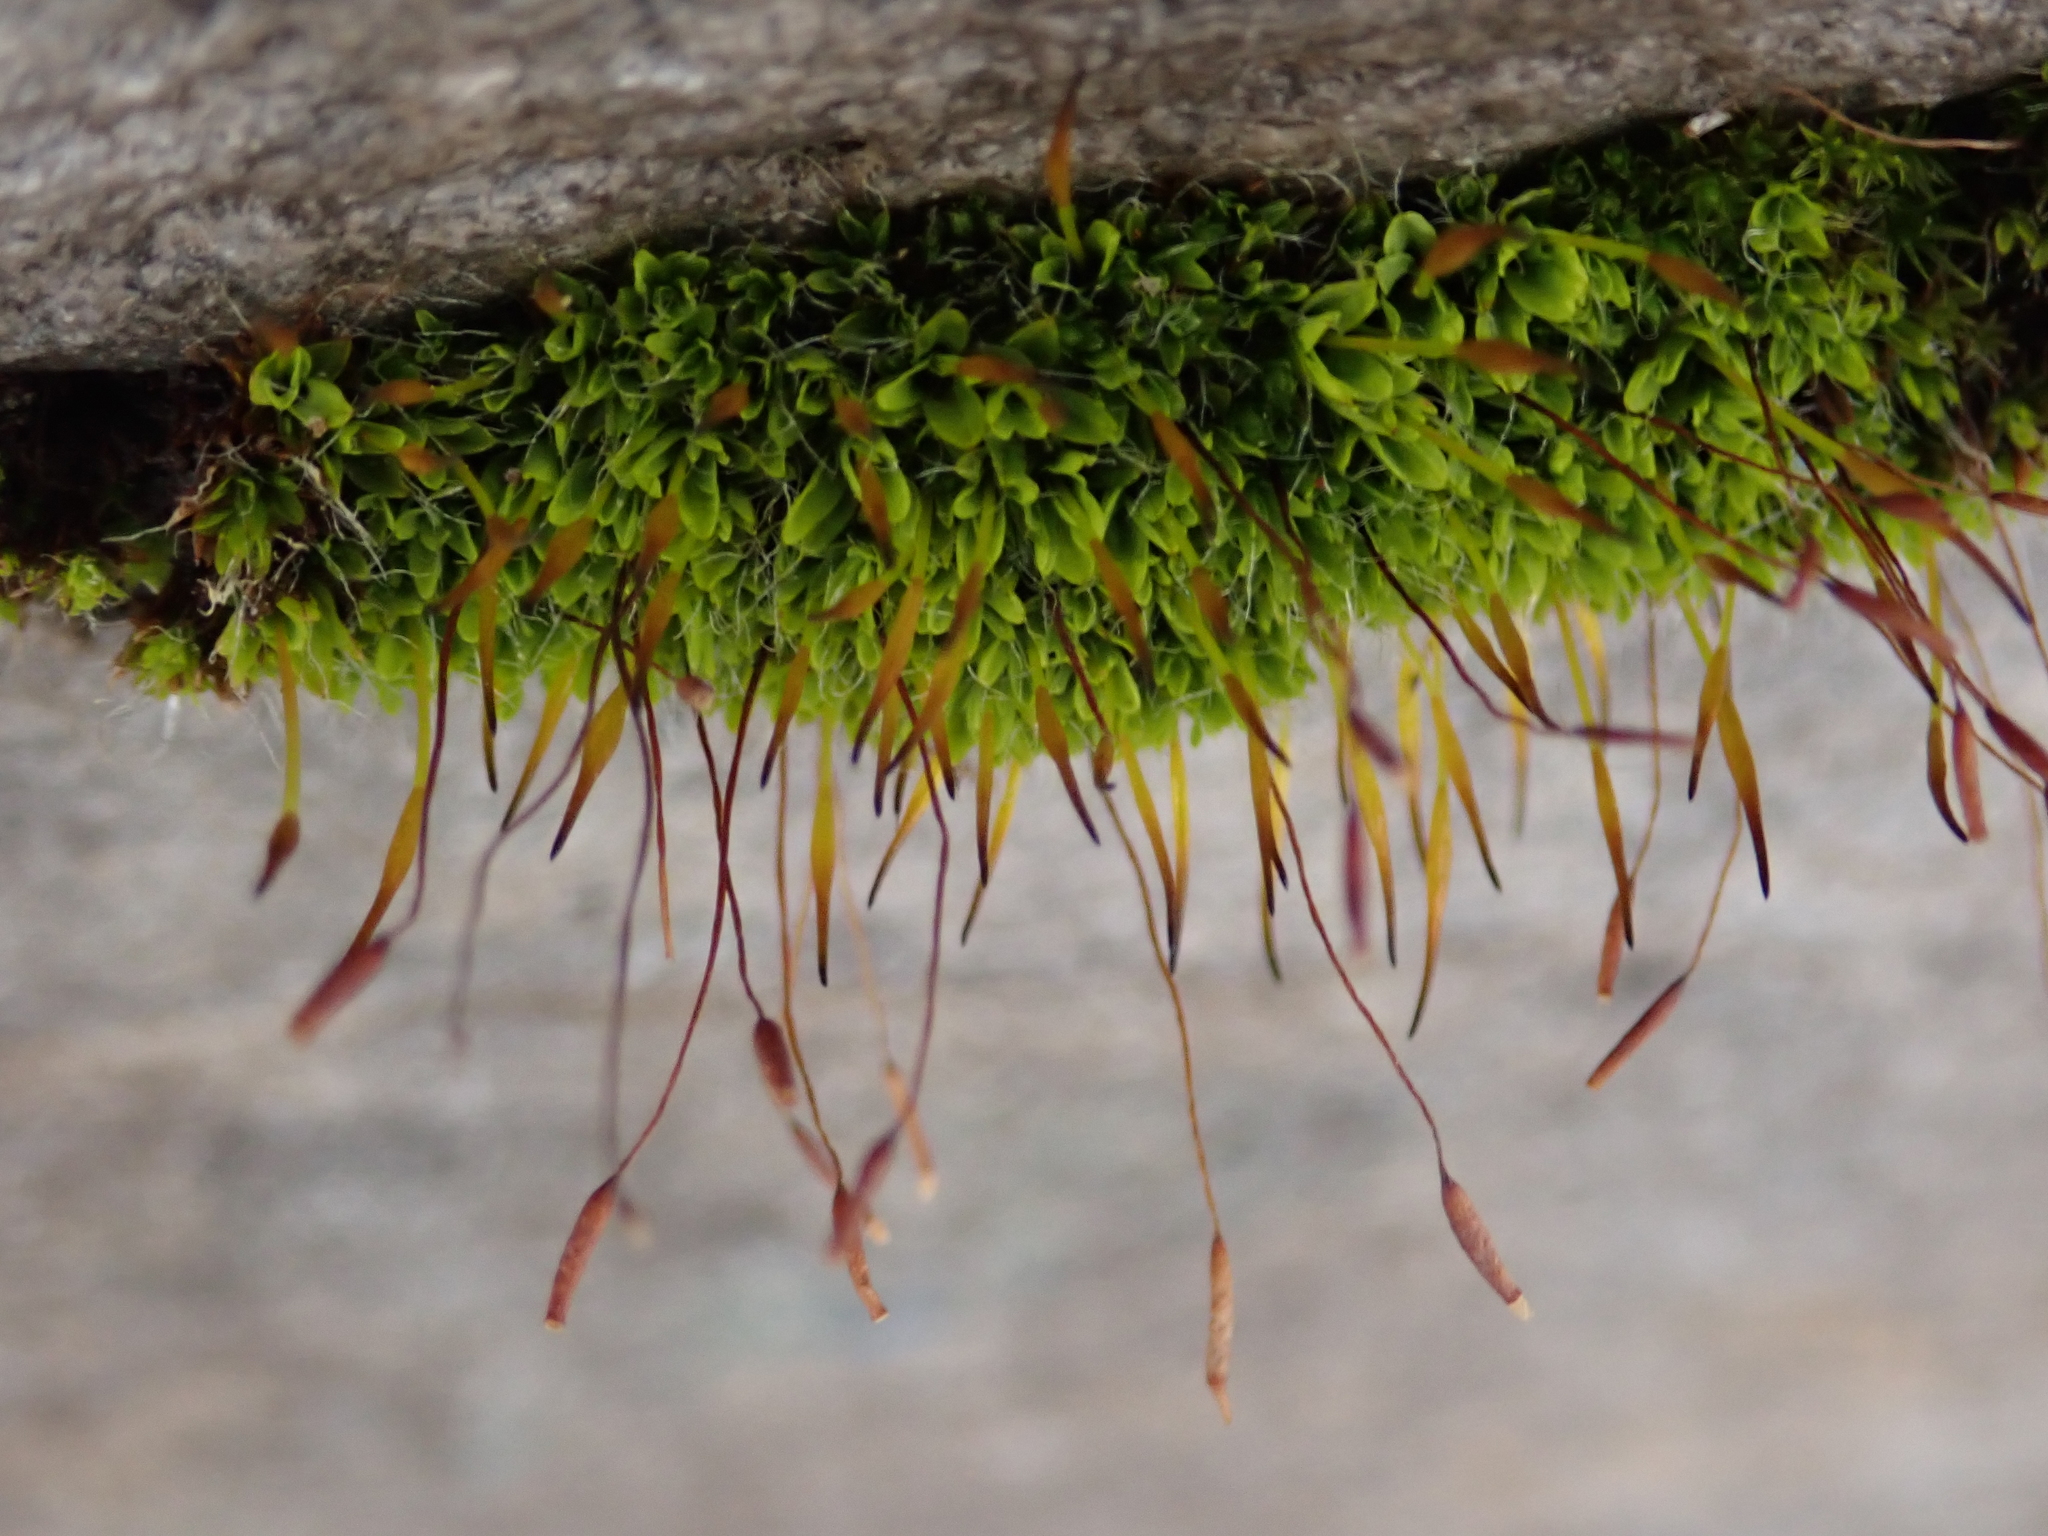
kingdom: Plantae
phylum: Bryophyta
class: Bryopsida
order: Pottiales
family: Pottiaceae
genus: Tortula
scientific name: Tortula muralis
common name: Wall screw-moss
